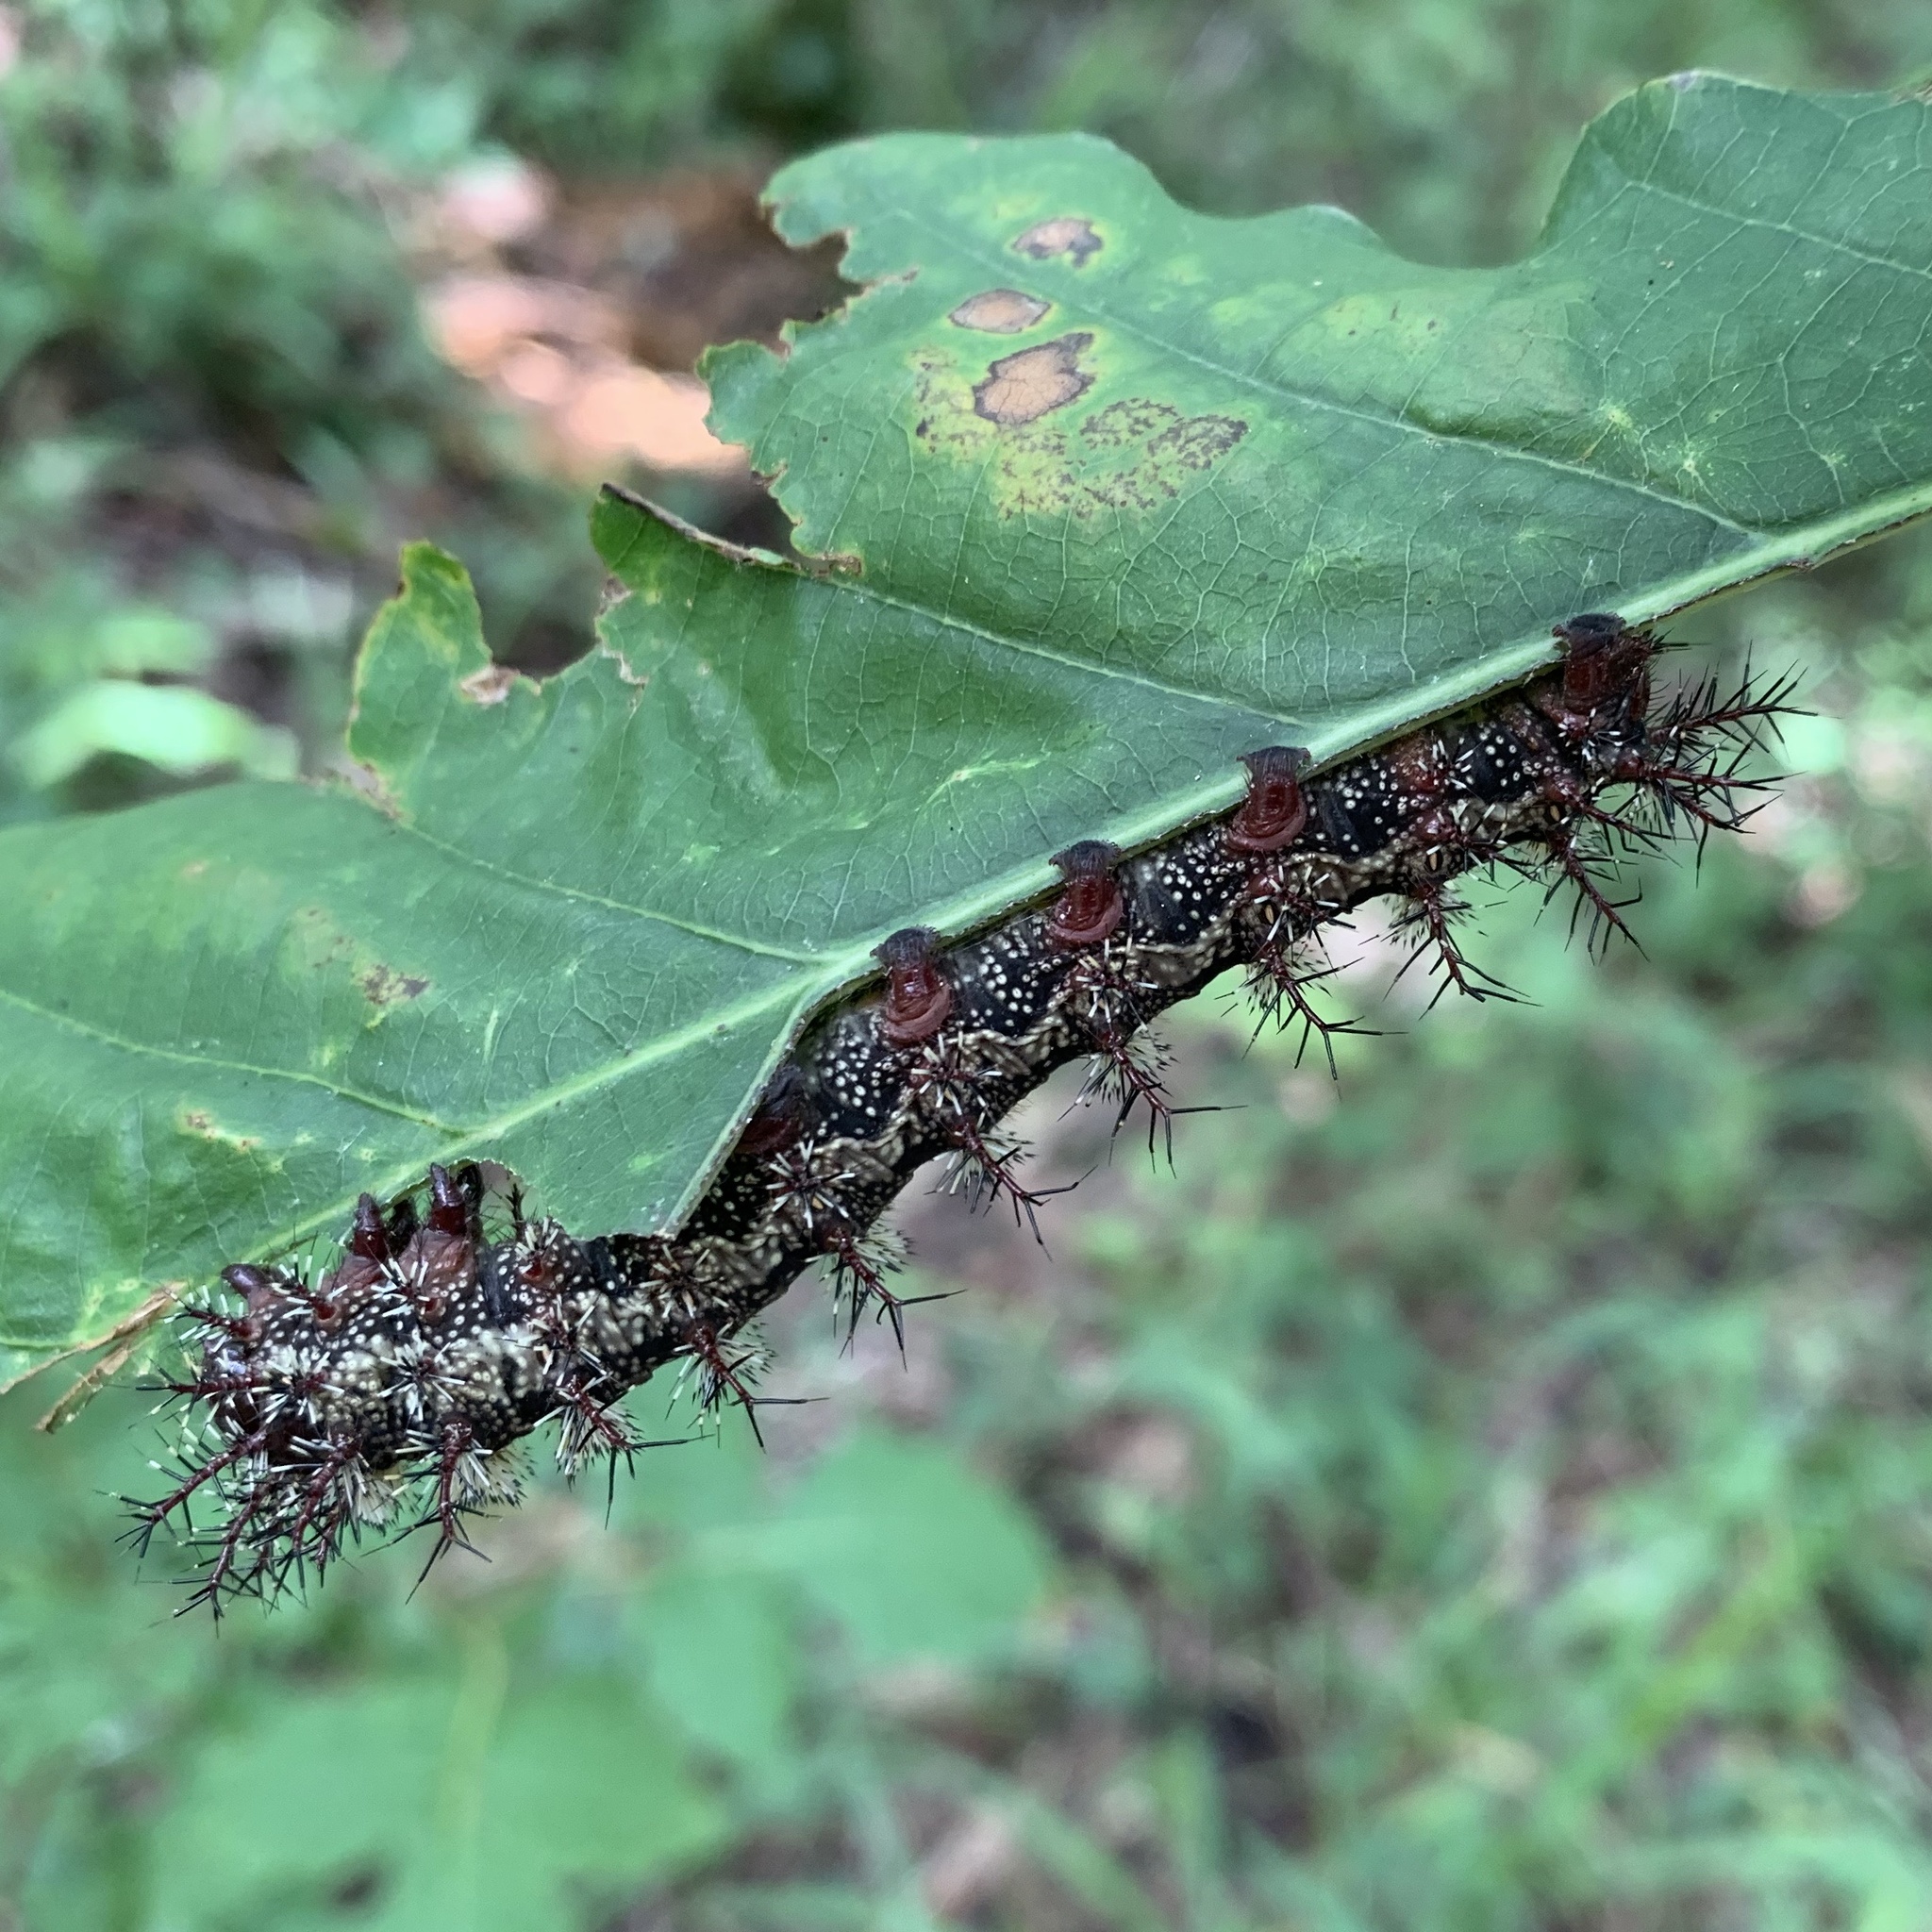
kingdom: Animalia
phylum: Arthropoda
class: Insecta
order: Lepidoptera
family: Saturniidae
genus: Hemileuca
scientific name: Hemileuca maia
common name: Eastern buckmoth
